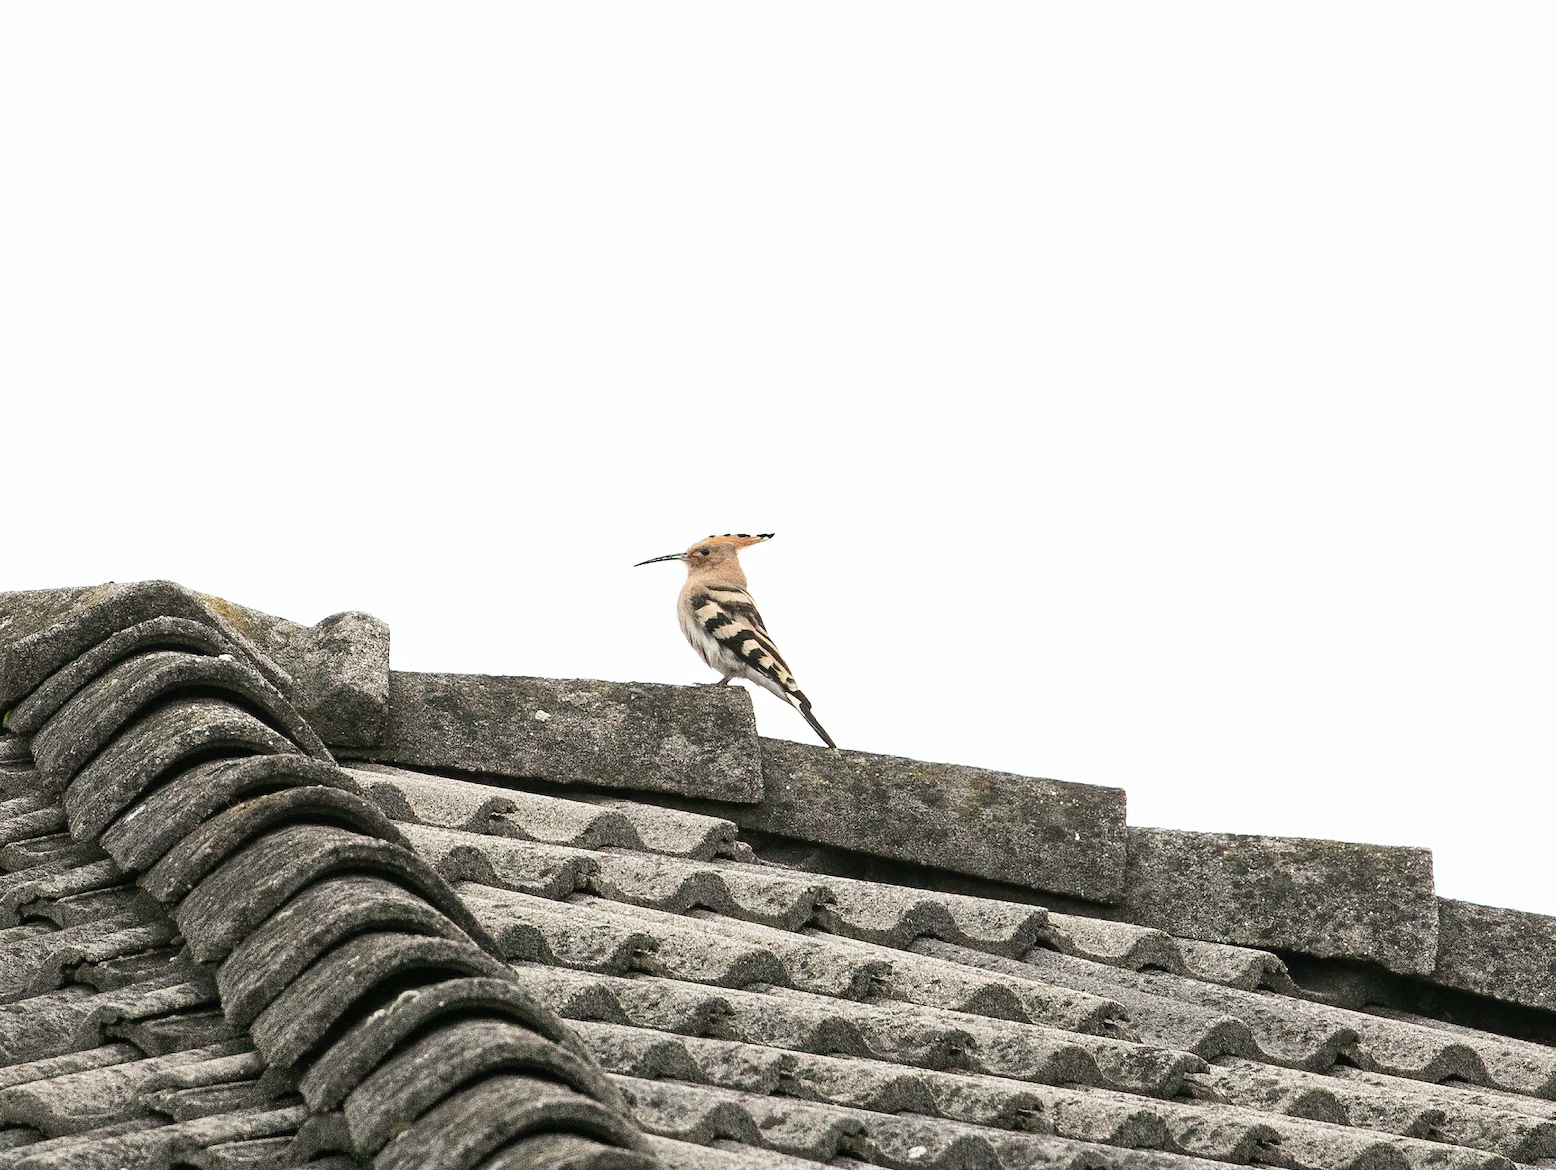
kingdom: Animalia
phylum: Chordata
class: Aves
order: Bucerotiformes
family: Upupidae
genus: Upupa
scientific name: Upupa epops
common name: Eurasian hoopoe
